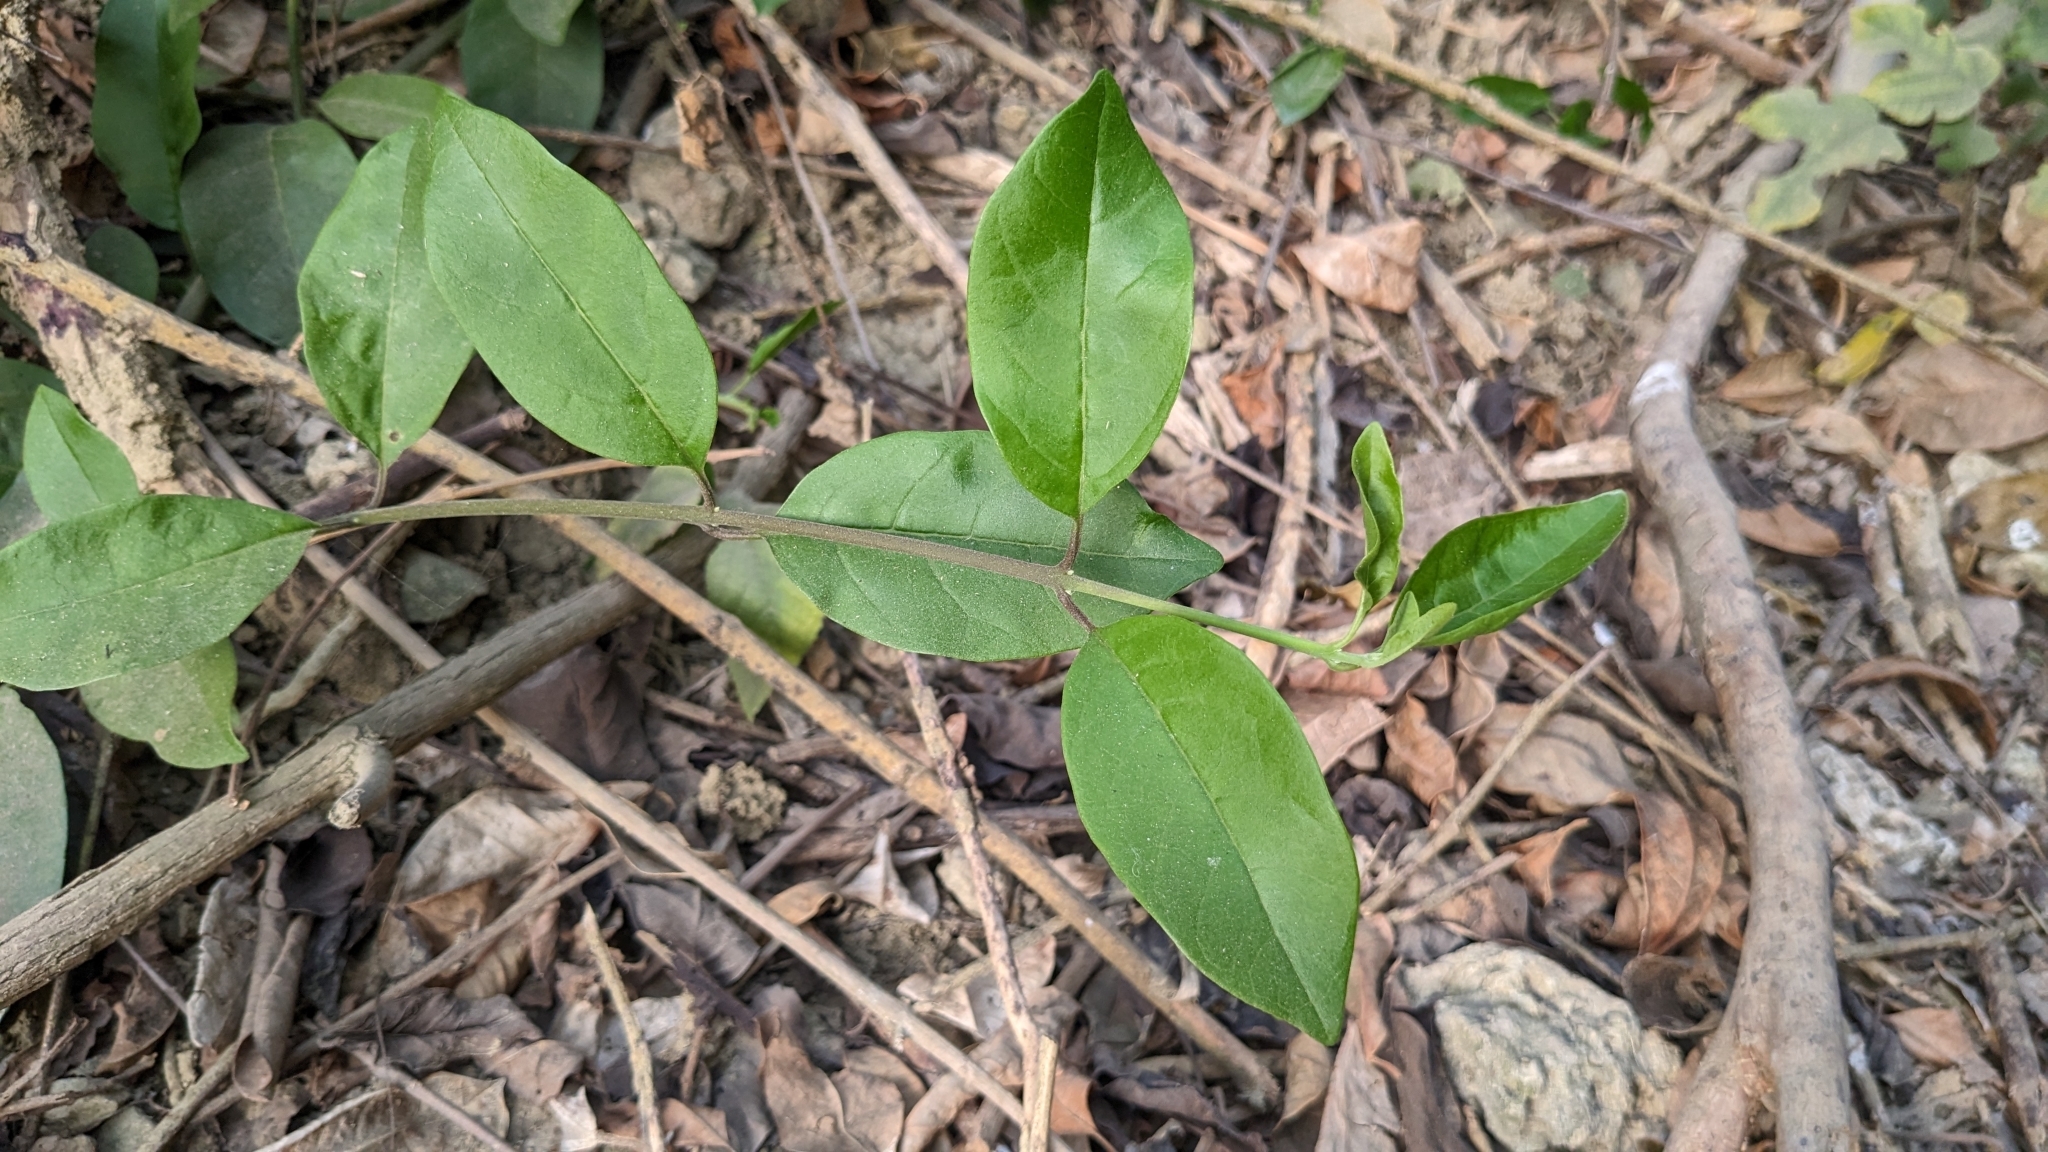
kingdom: Plantae
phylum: Tracheophyta
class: Magnoliopsida
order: Lamiales
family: Lamiaceae
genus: Volkameria
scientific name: Volkameria inermis
